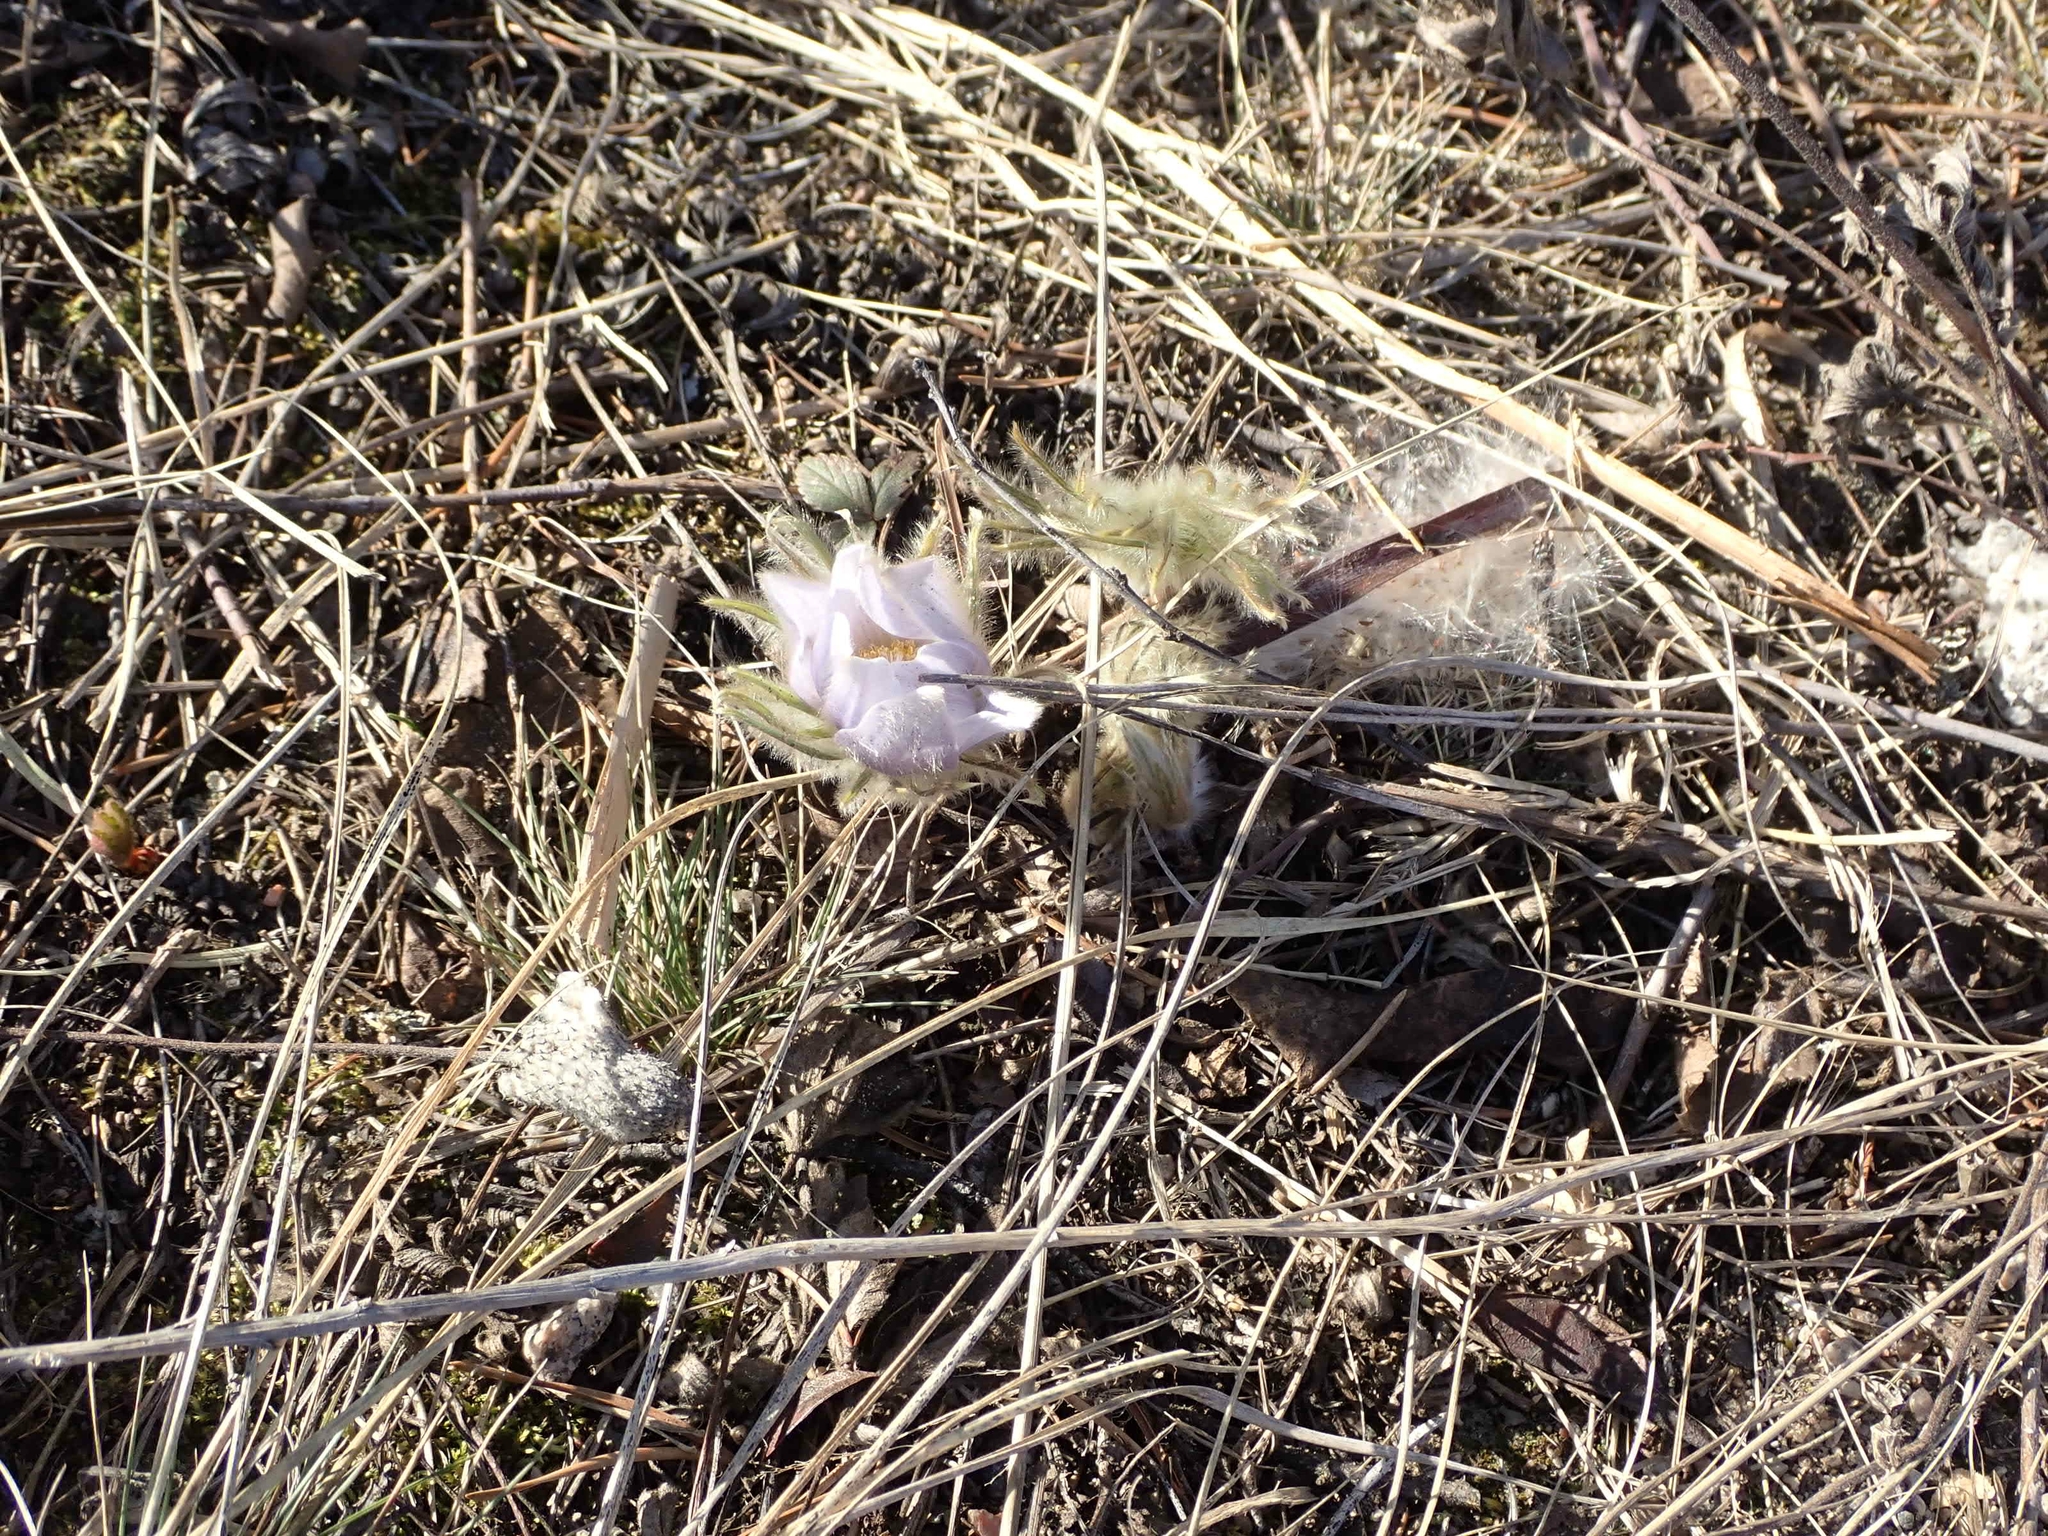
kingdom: Plantae
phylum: Tracheophyta
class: Magnoliopsida
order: Ranunculales
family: Ranunculaceae
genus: Pulsatilla
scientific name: Pulsatilla nuttalliana
